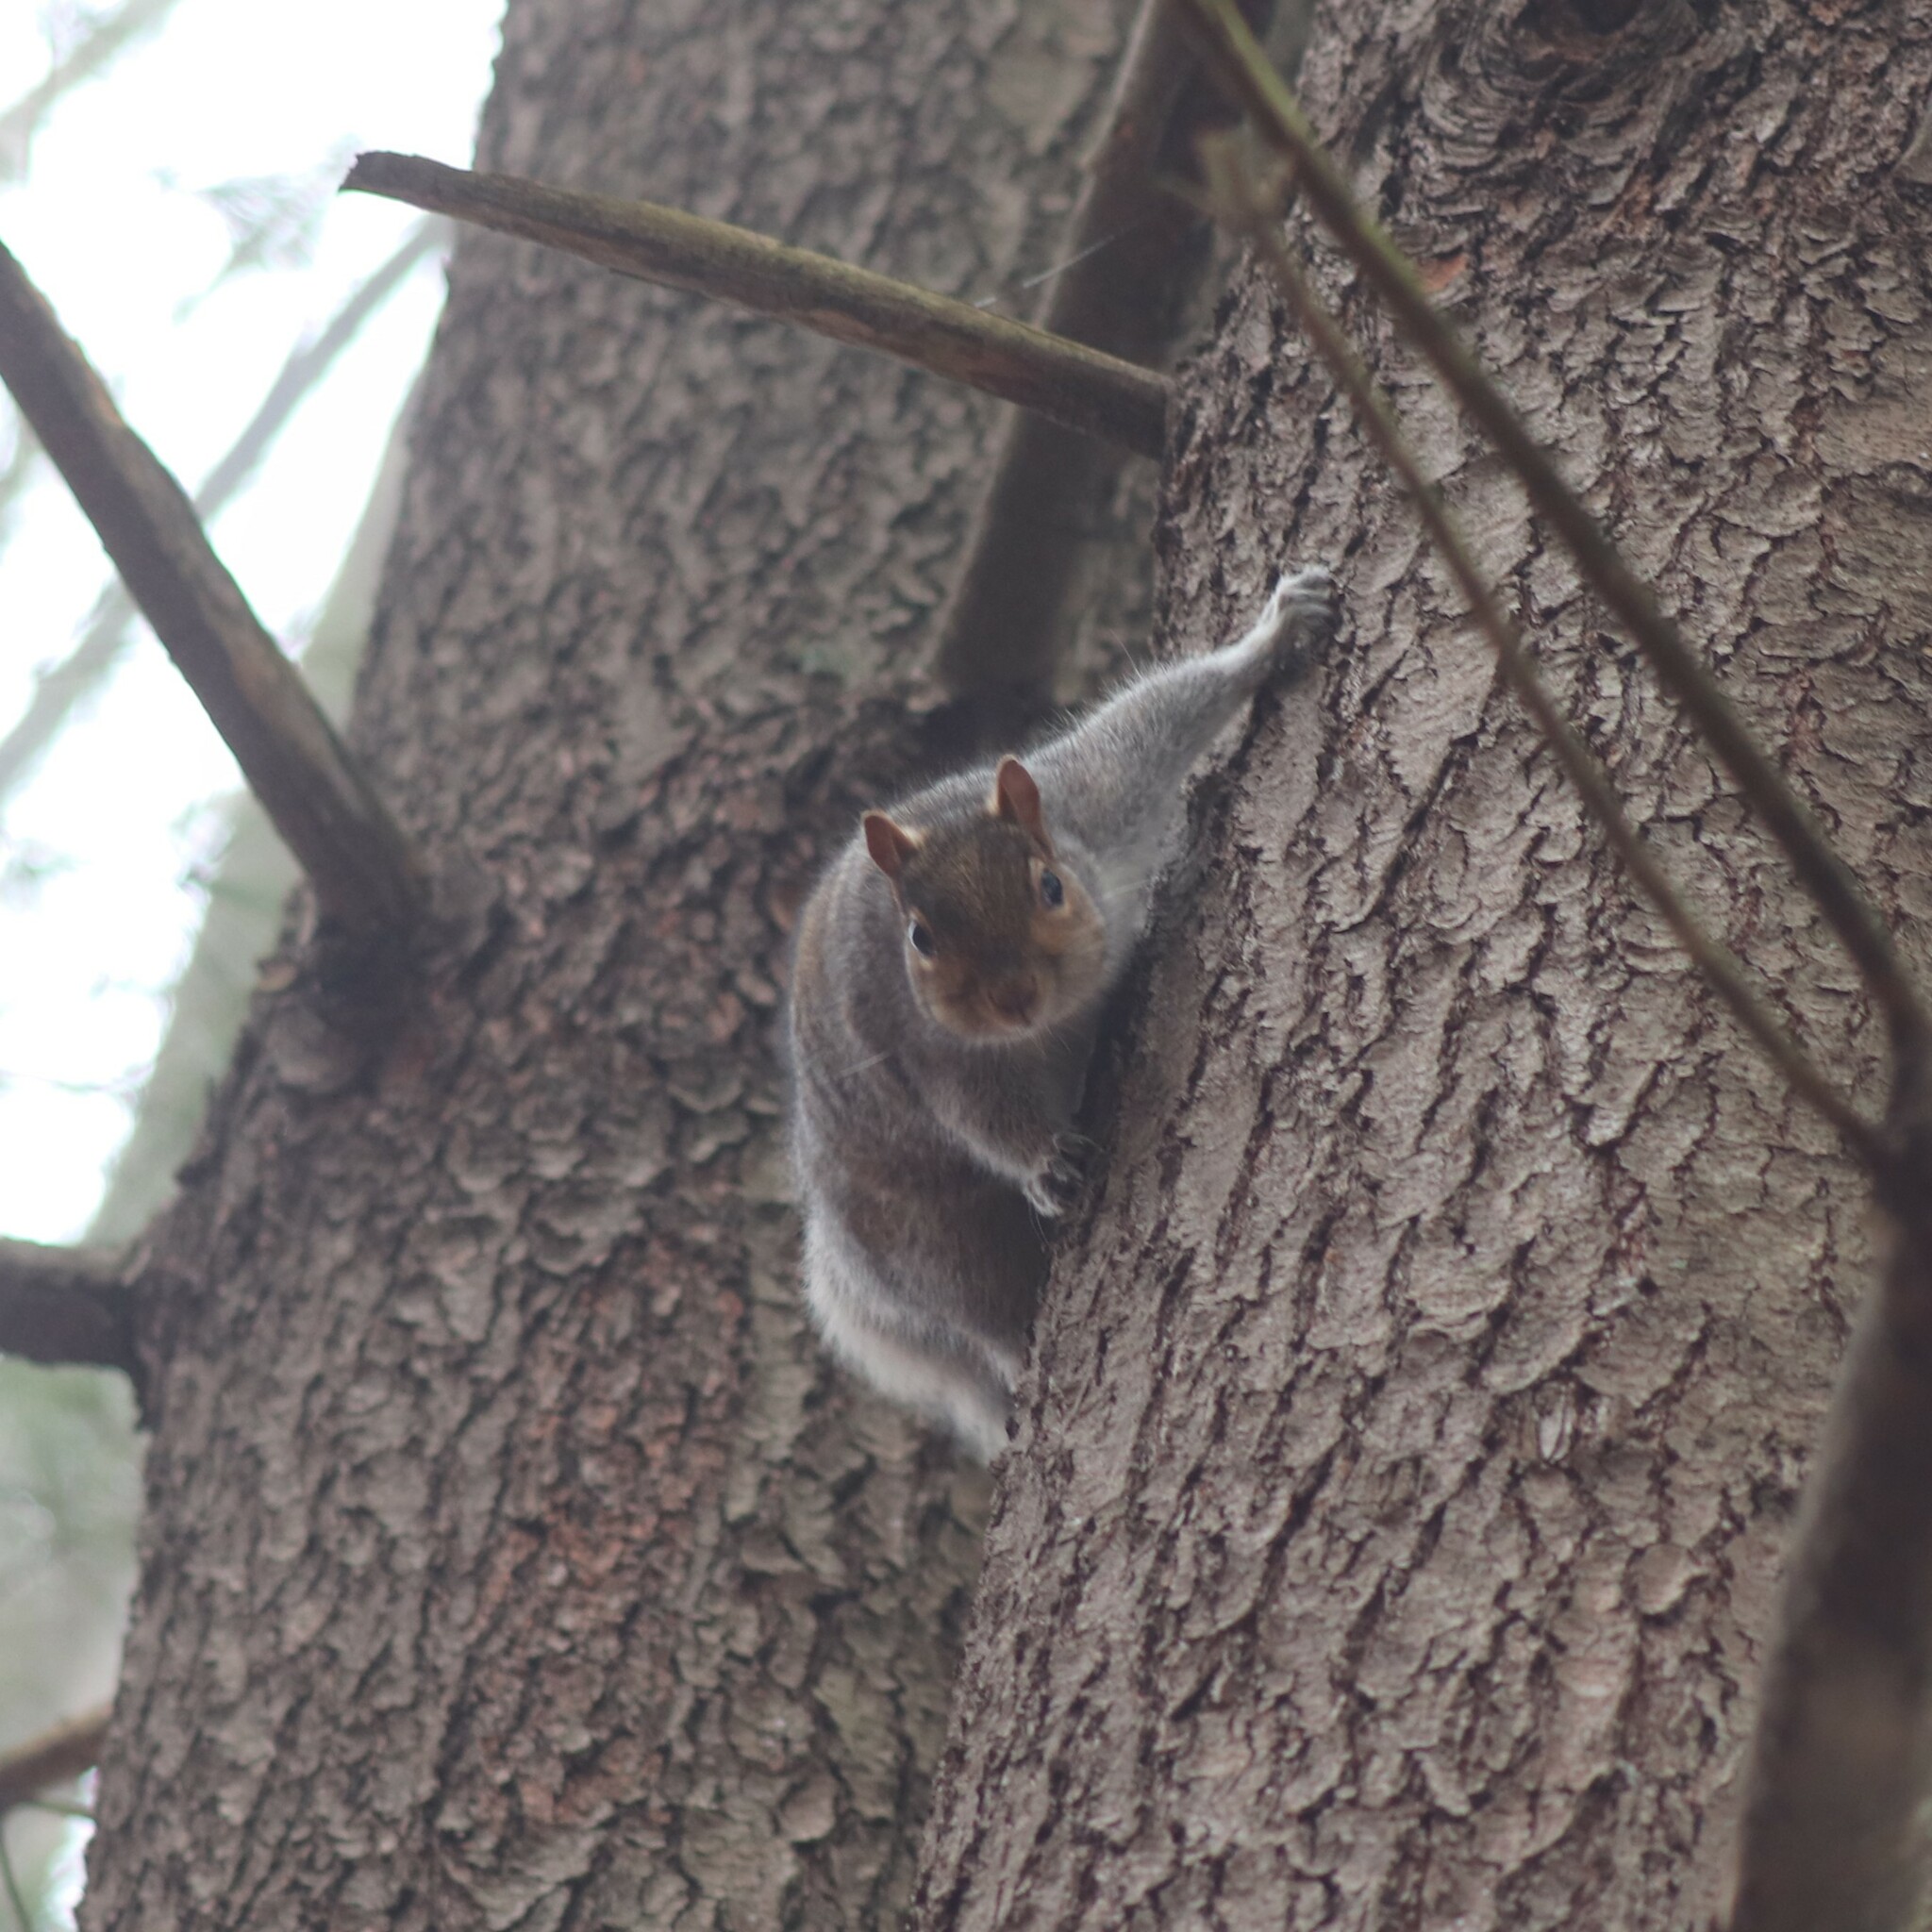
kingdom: Animalia
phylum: Chordata
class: Mammalia
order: Rodentia
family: Sciuridae
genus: Sciurus
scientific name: Sciurus carolinensis
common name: Eastern gray squirrel
